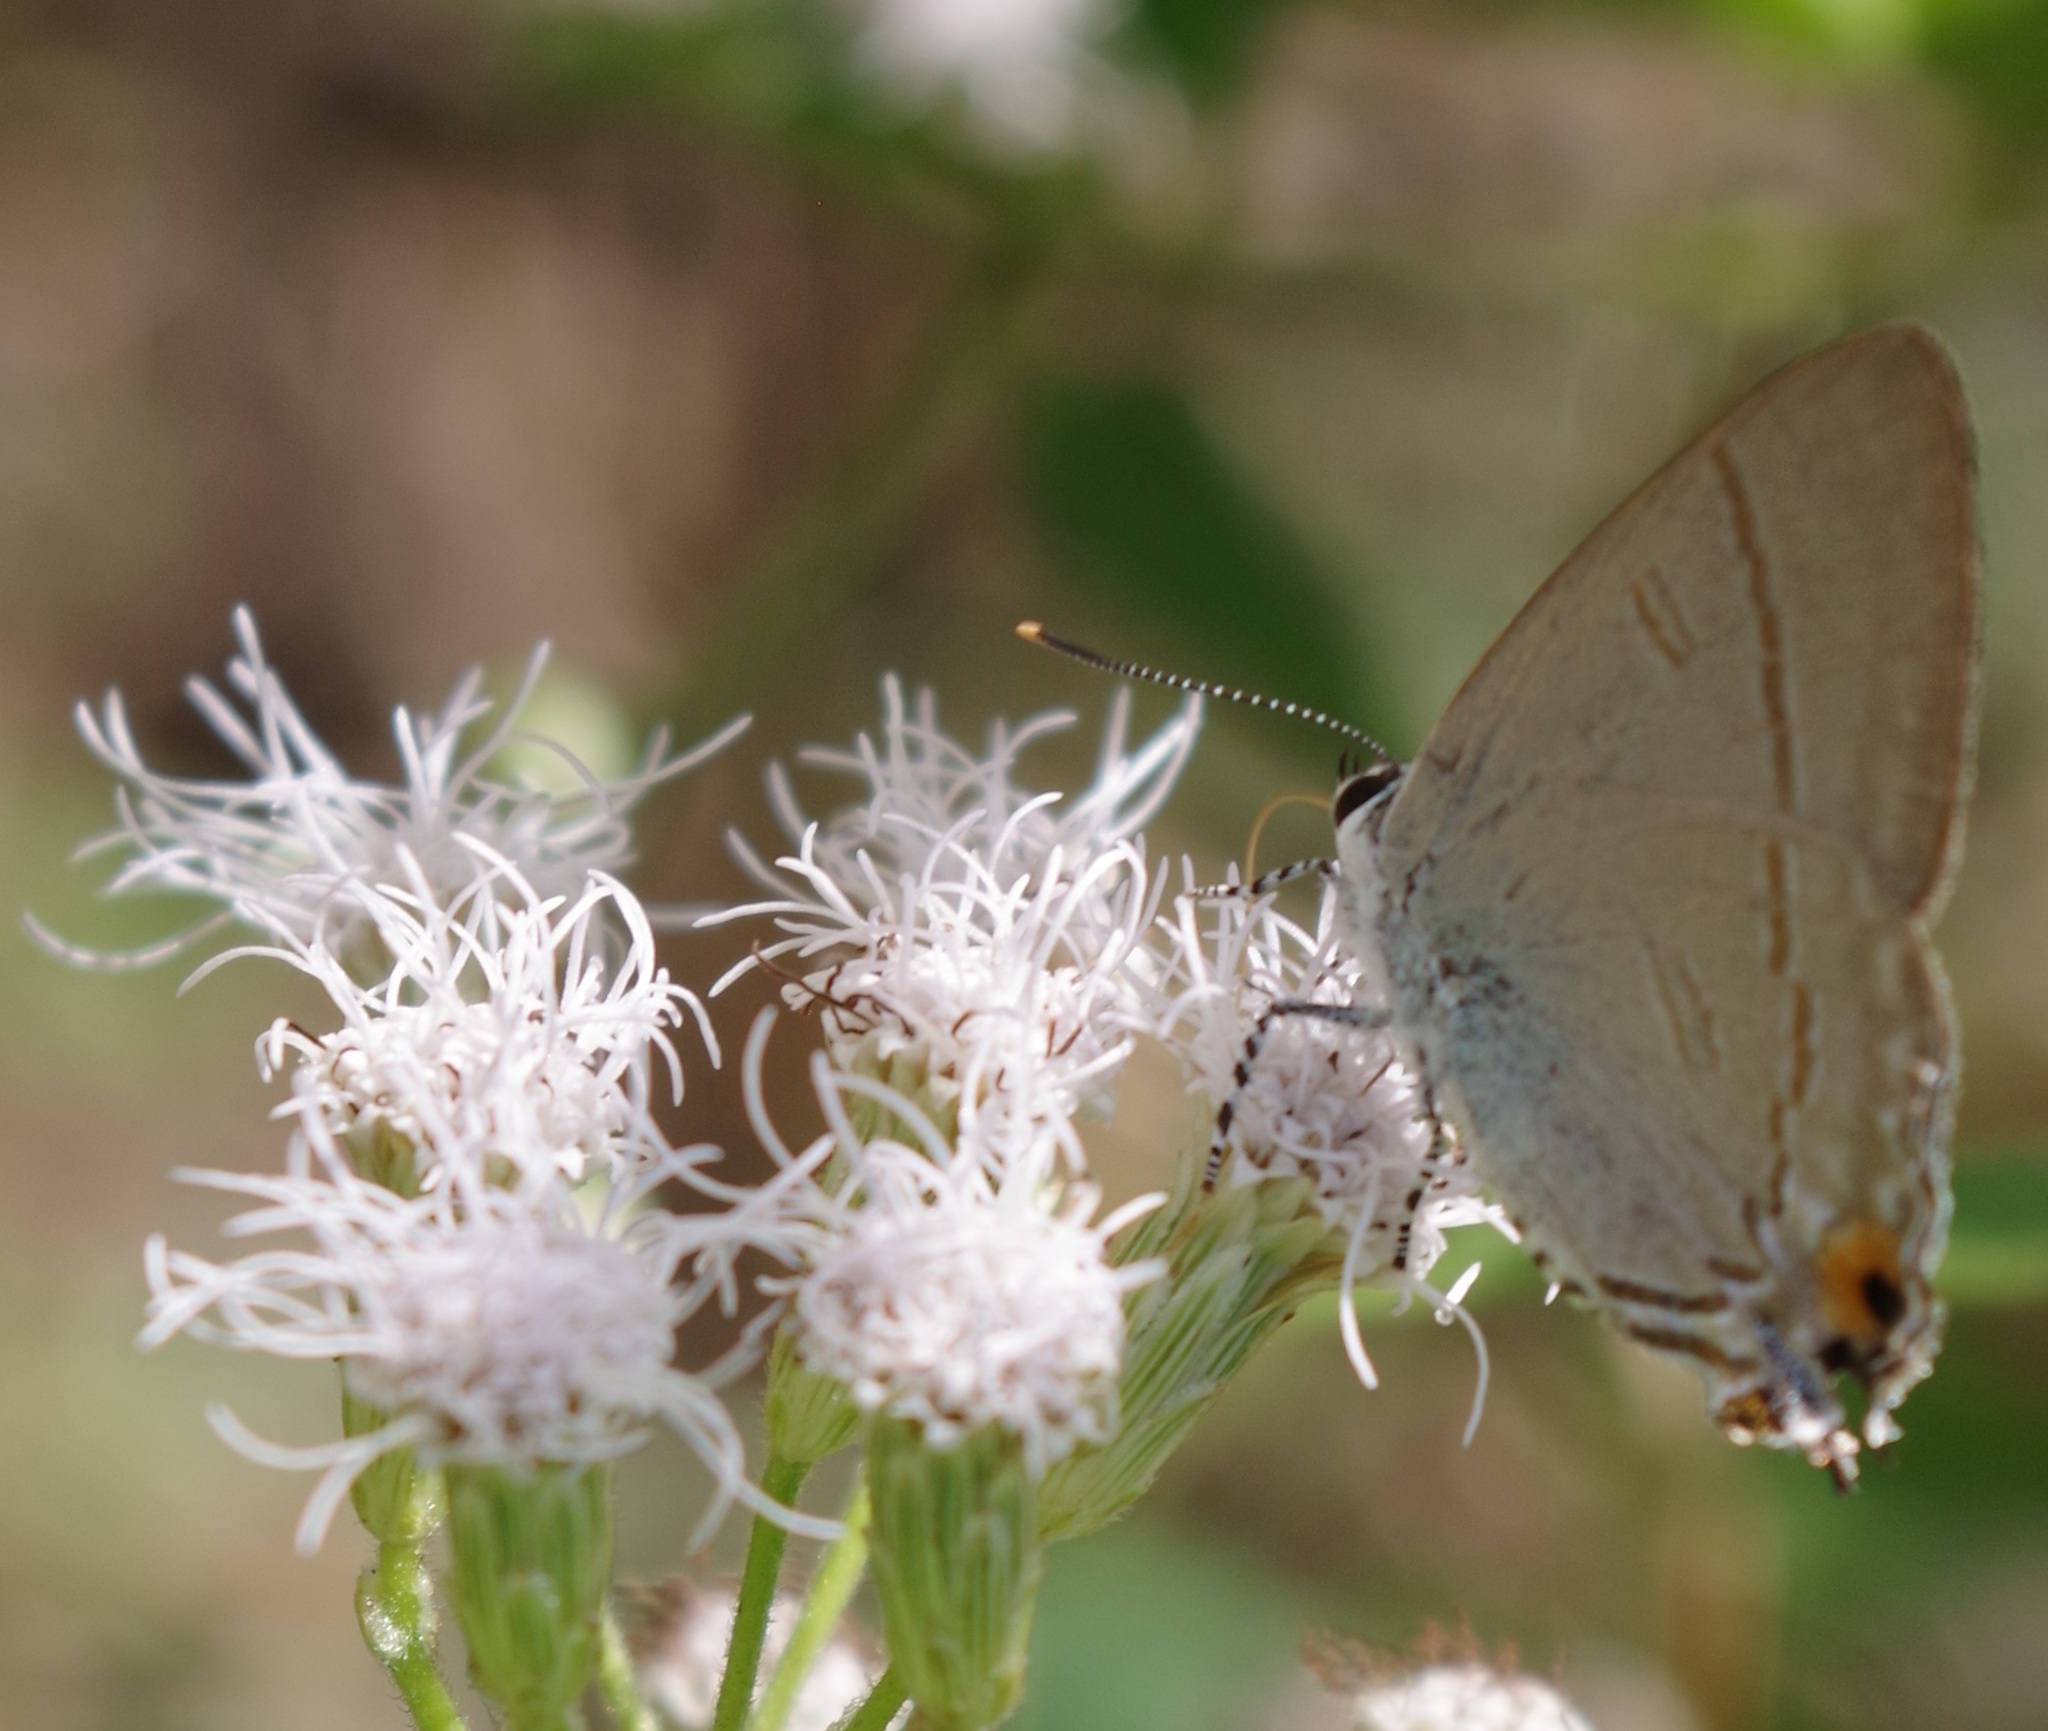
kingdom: Animalia
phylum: Arthropoda
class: Insecta
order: Lepidoptera
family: Lycaenidae
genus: Hypolycaena
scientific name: Hypolycaena erylus
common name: Common tit
